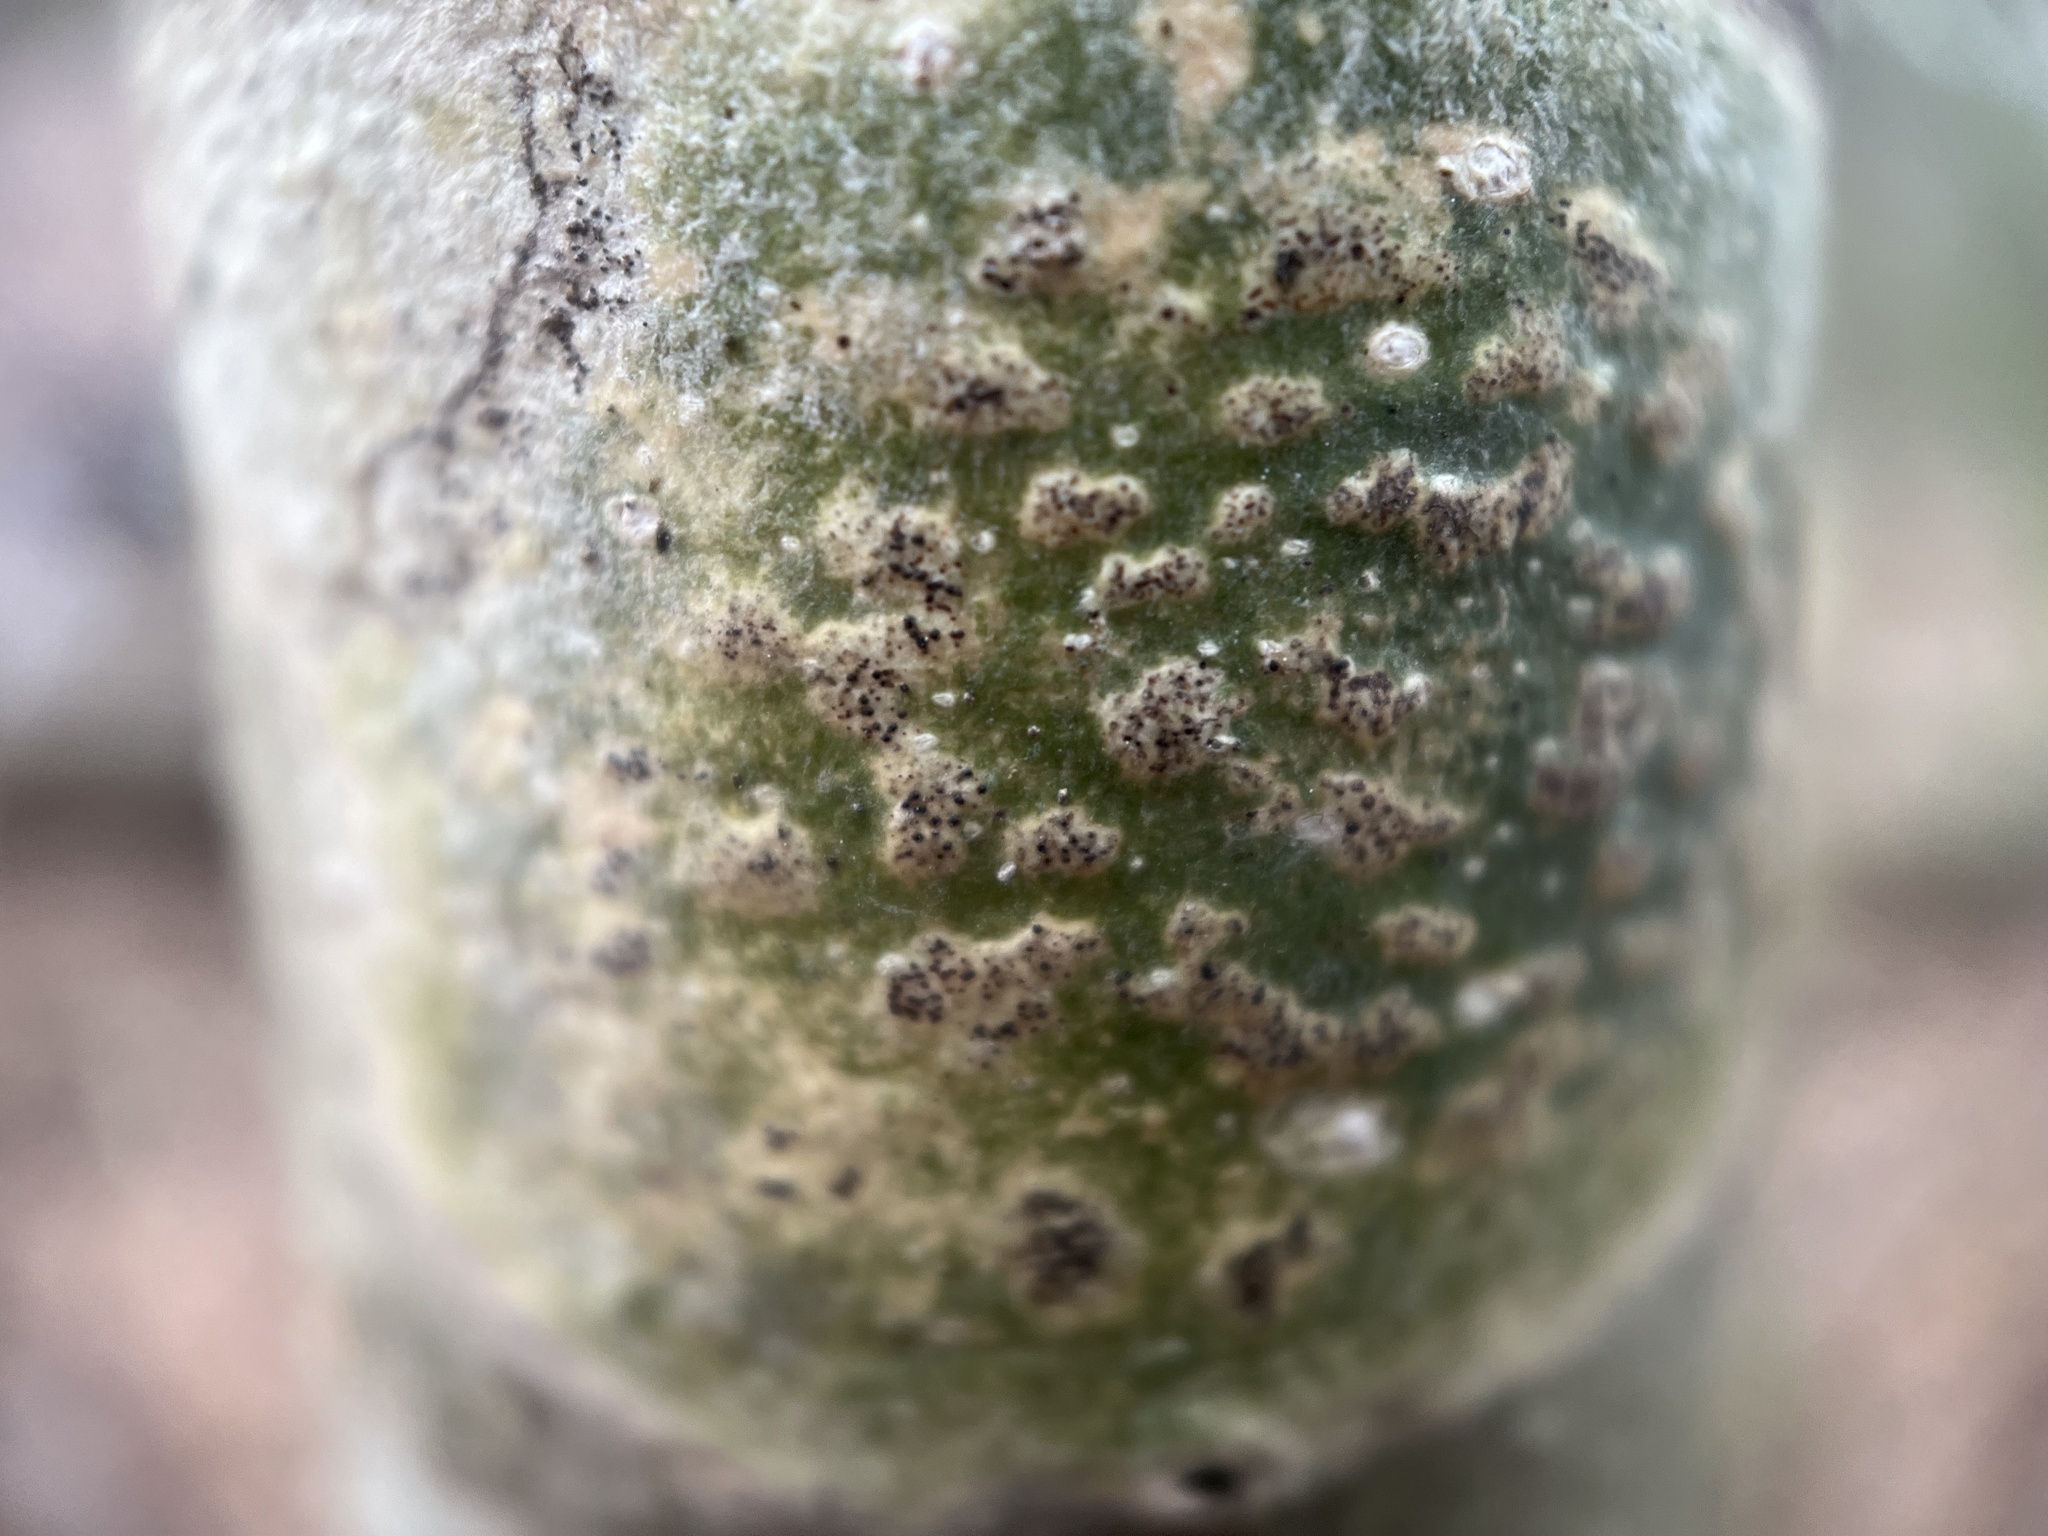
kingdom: Fungi
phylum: Ascomycota
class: Dothideomycetes
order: Trypetheliales
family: Trypetheliaceae
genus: Viridothelium
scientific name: Viridothelium virens
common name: Speckled blister lichen
